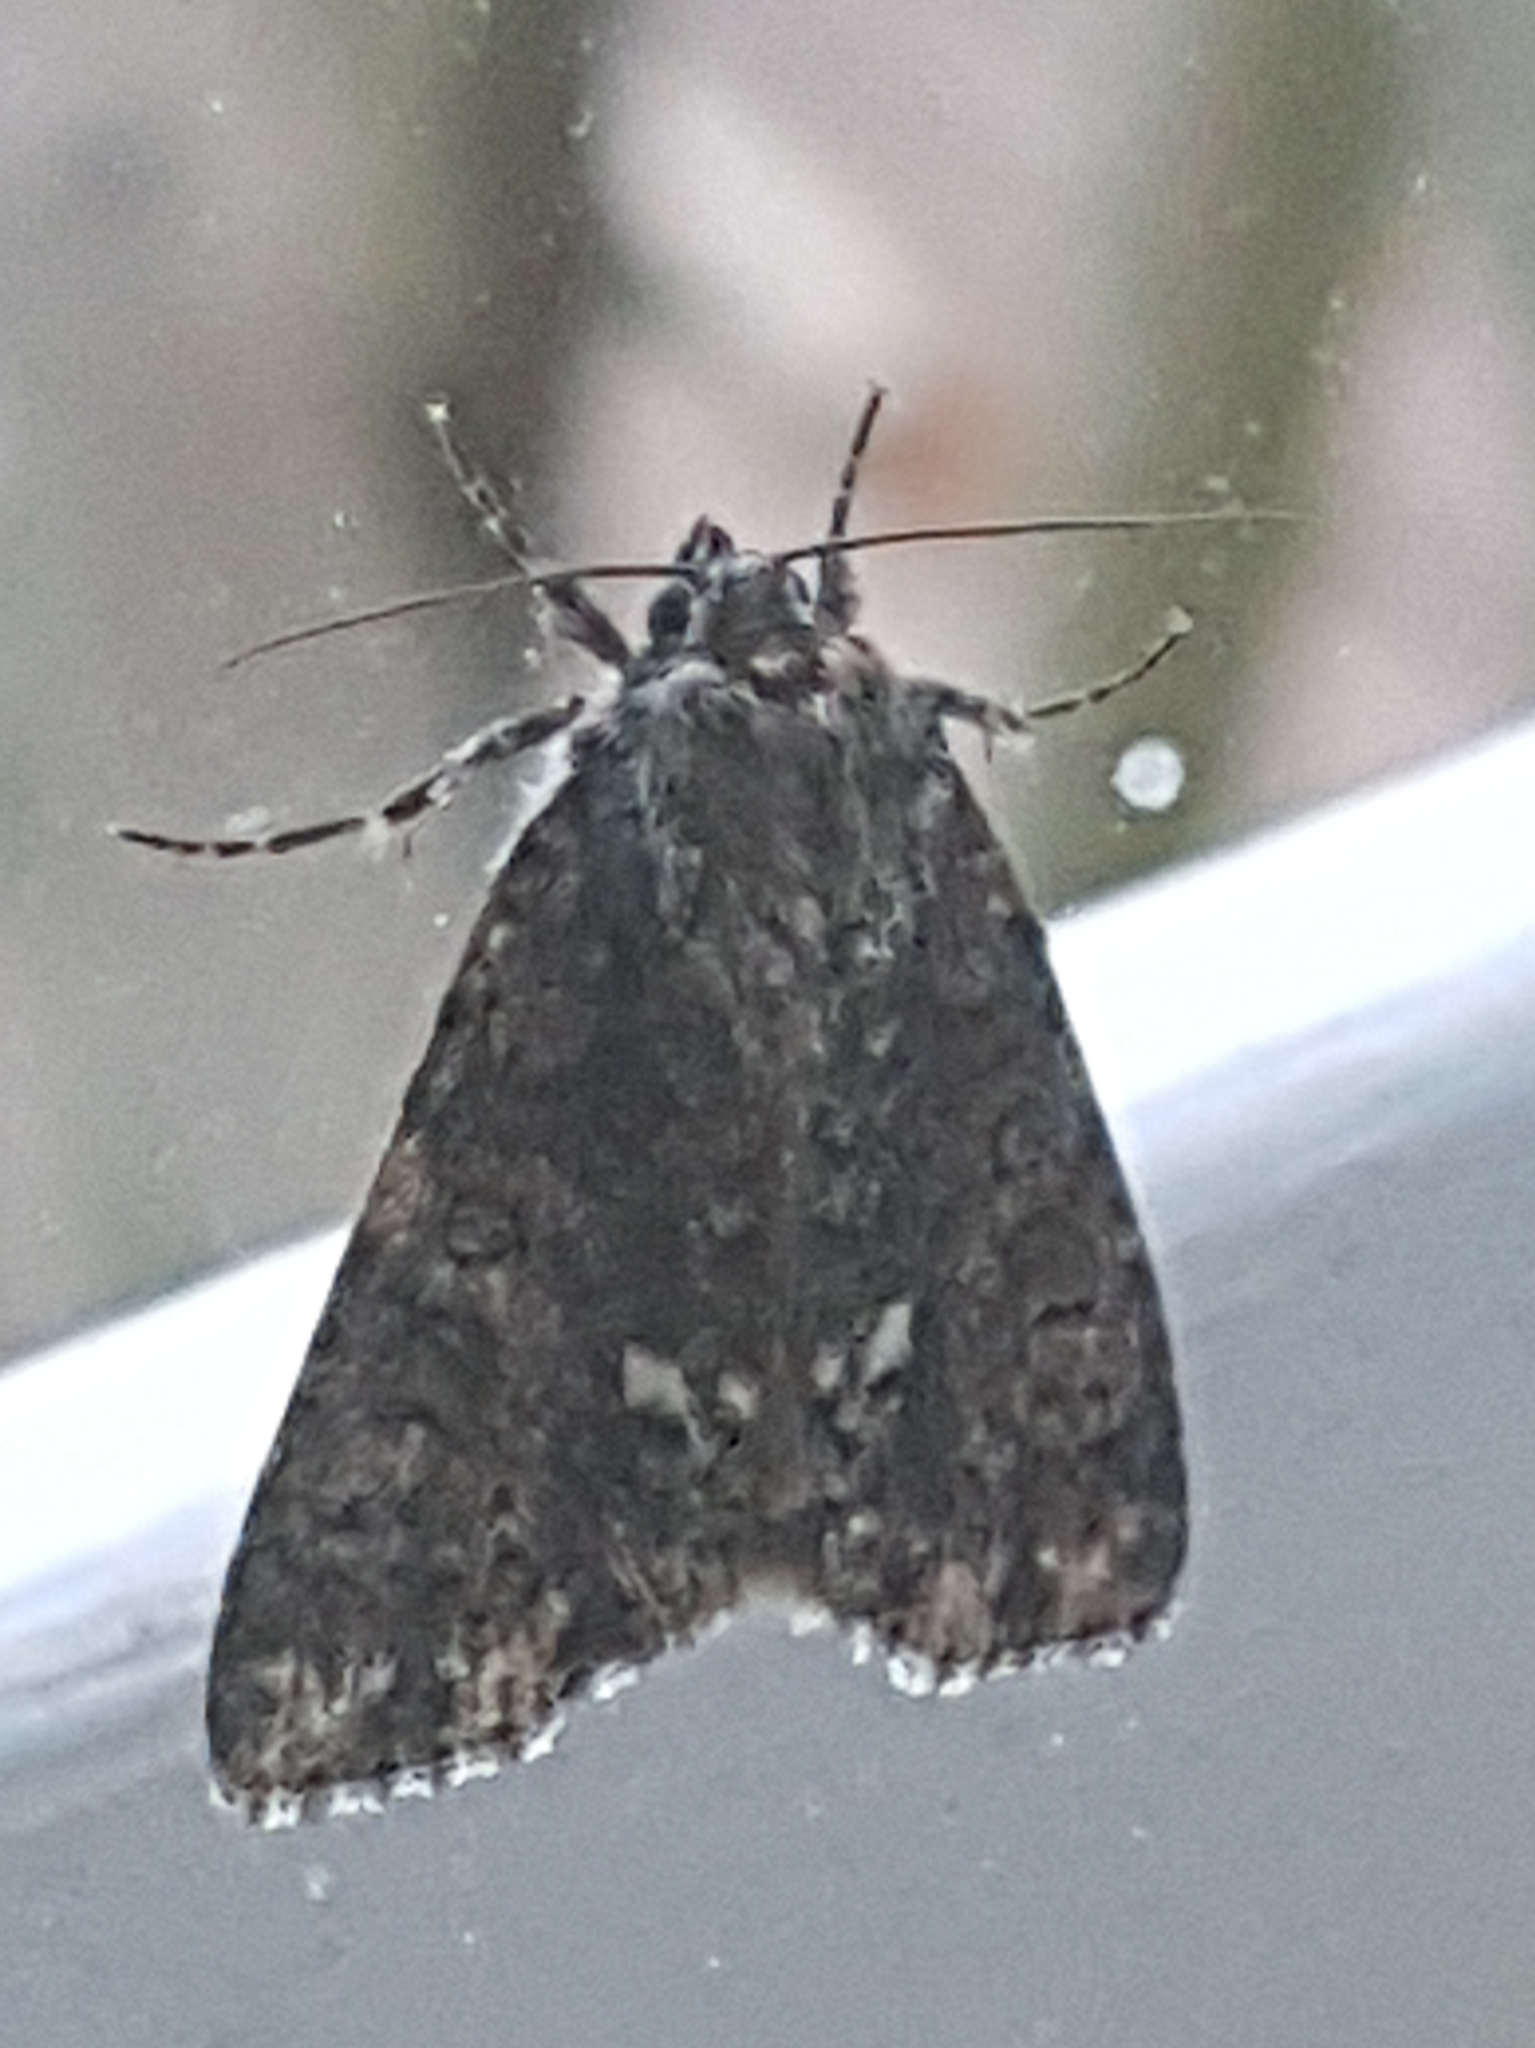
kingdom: Animalia
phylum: Arthropoda
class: Insecta
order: Lepidoptera
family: Noctuidae
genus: Acronicta
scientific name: Acronicta rumicis
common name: Knot grass
